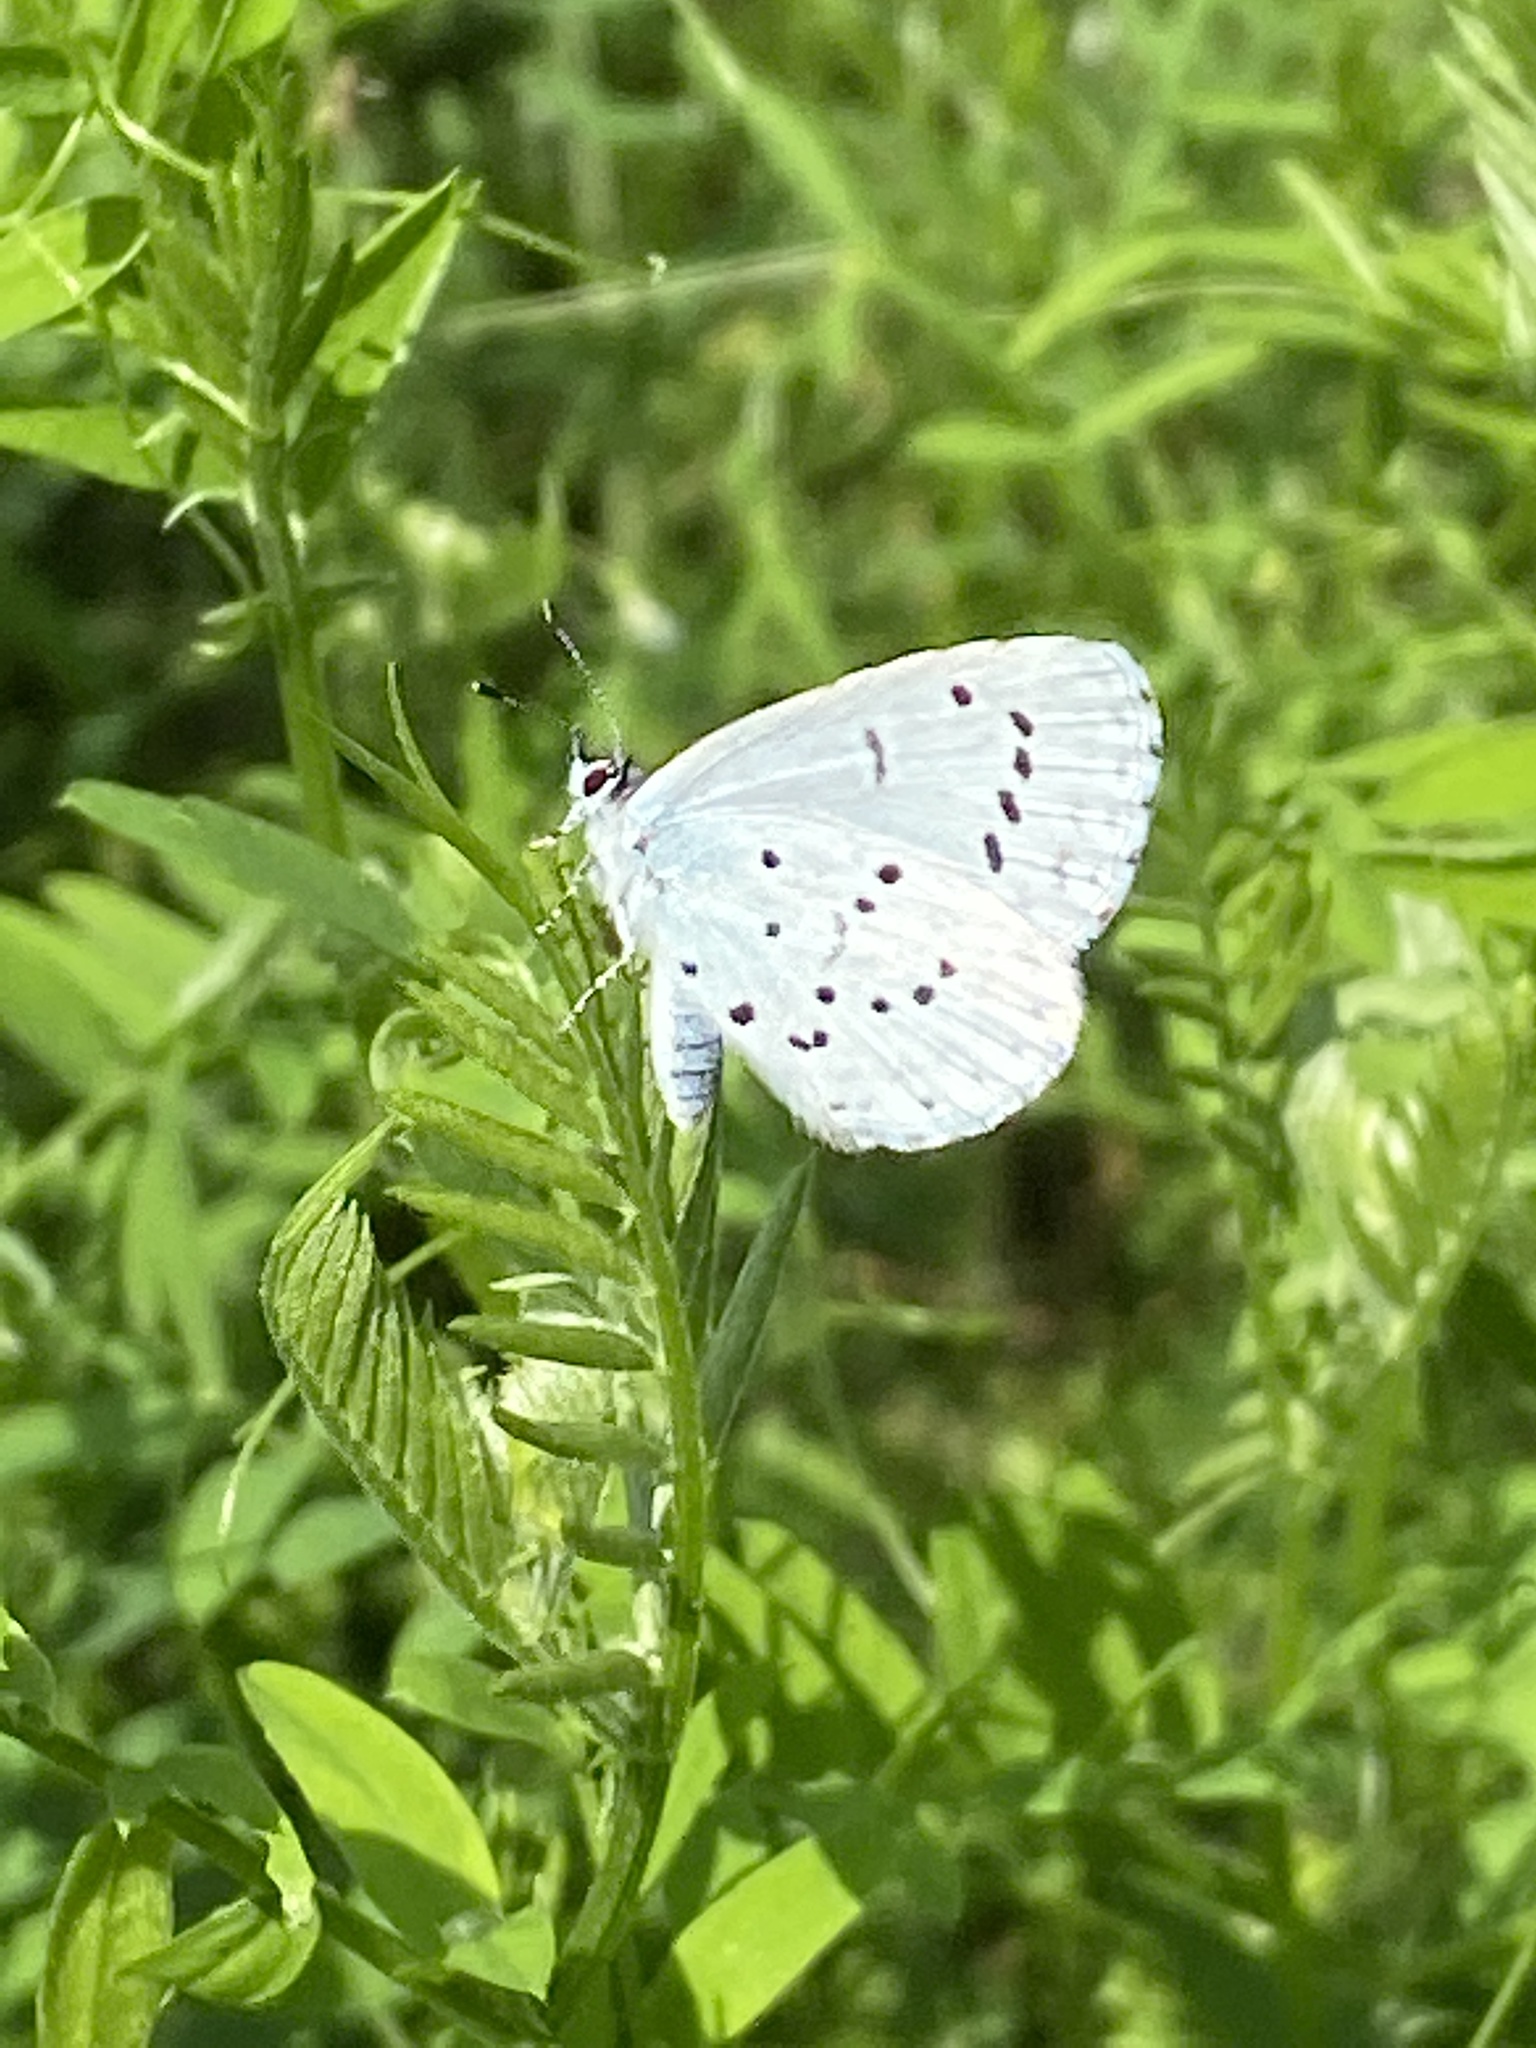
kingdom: Animalia
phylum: Arthropoda
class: Insecta
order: Lepidoptera
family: Lycaenidae
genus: Celastrina
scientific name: Celastrina argiolus
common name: Holly blue
